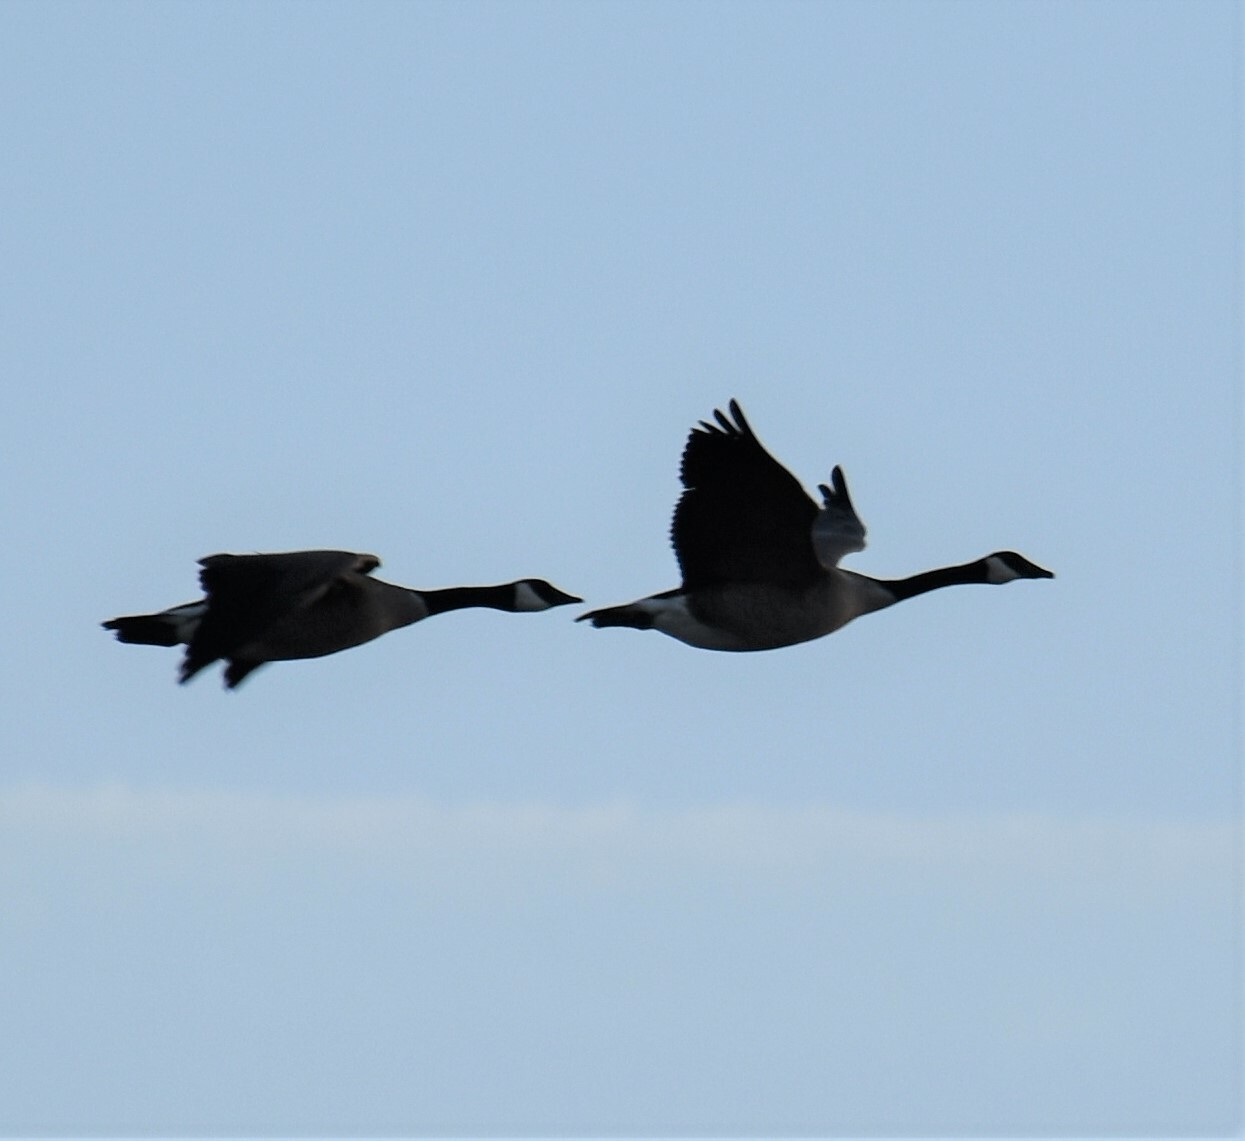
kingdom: Animalia
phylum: Chordata
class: Aves
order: Anseriformes
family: Anatidae
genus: Branta
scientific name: Branta canadensis
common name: Canada goose
